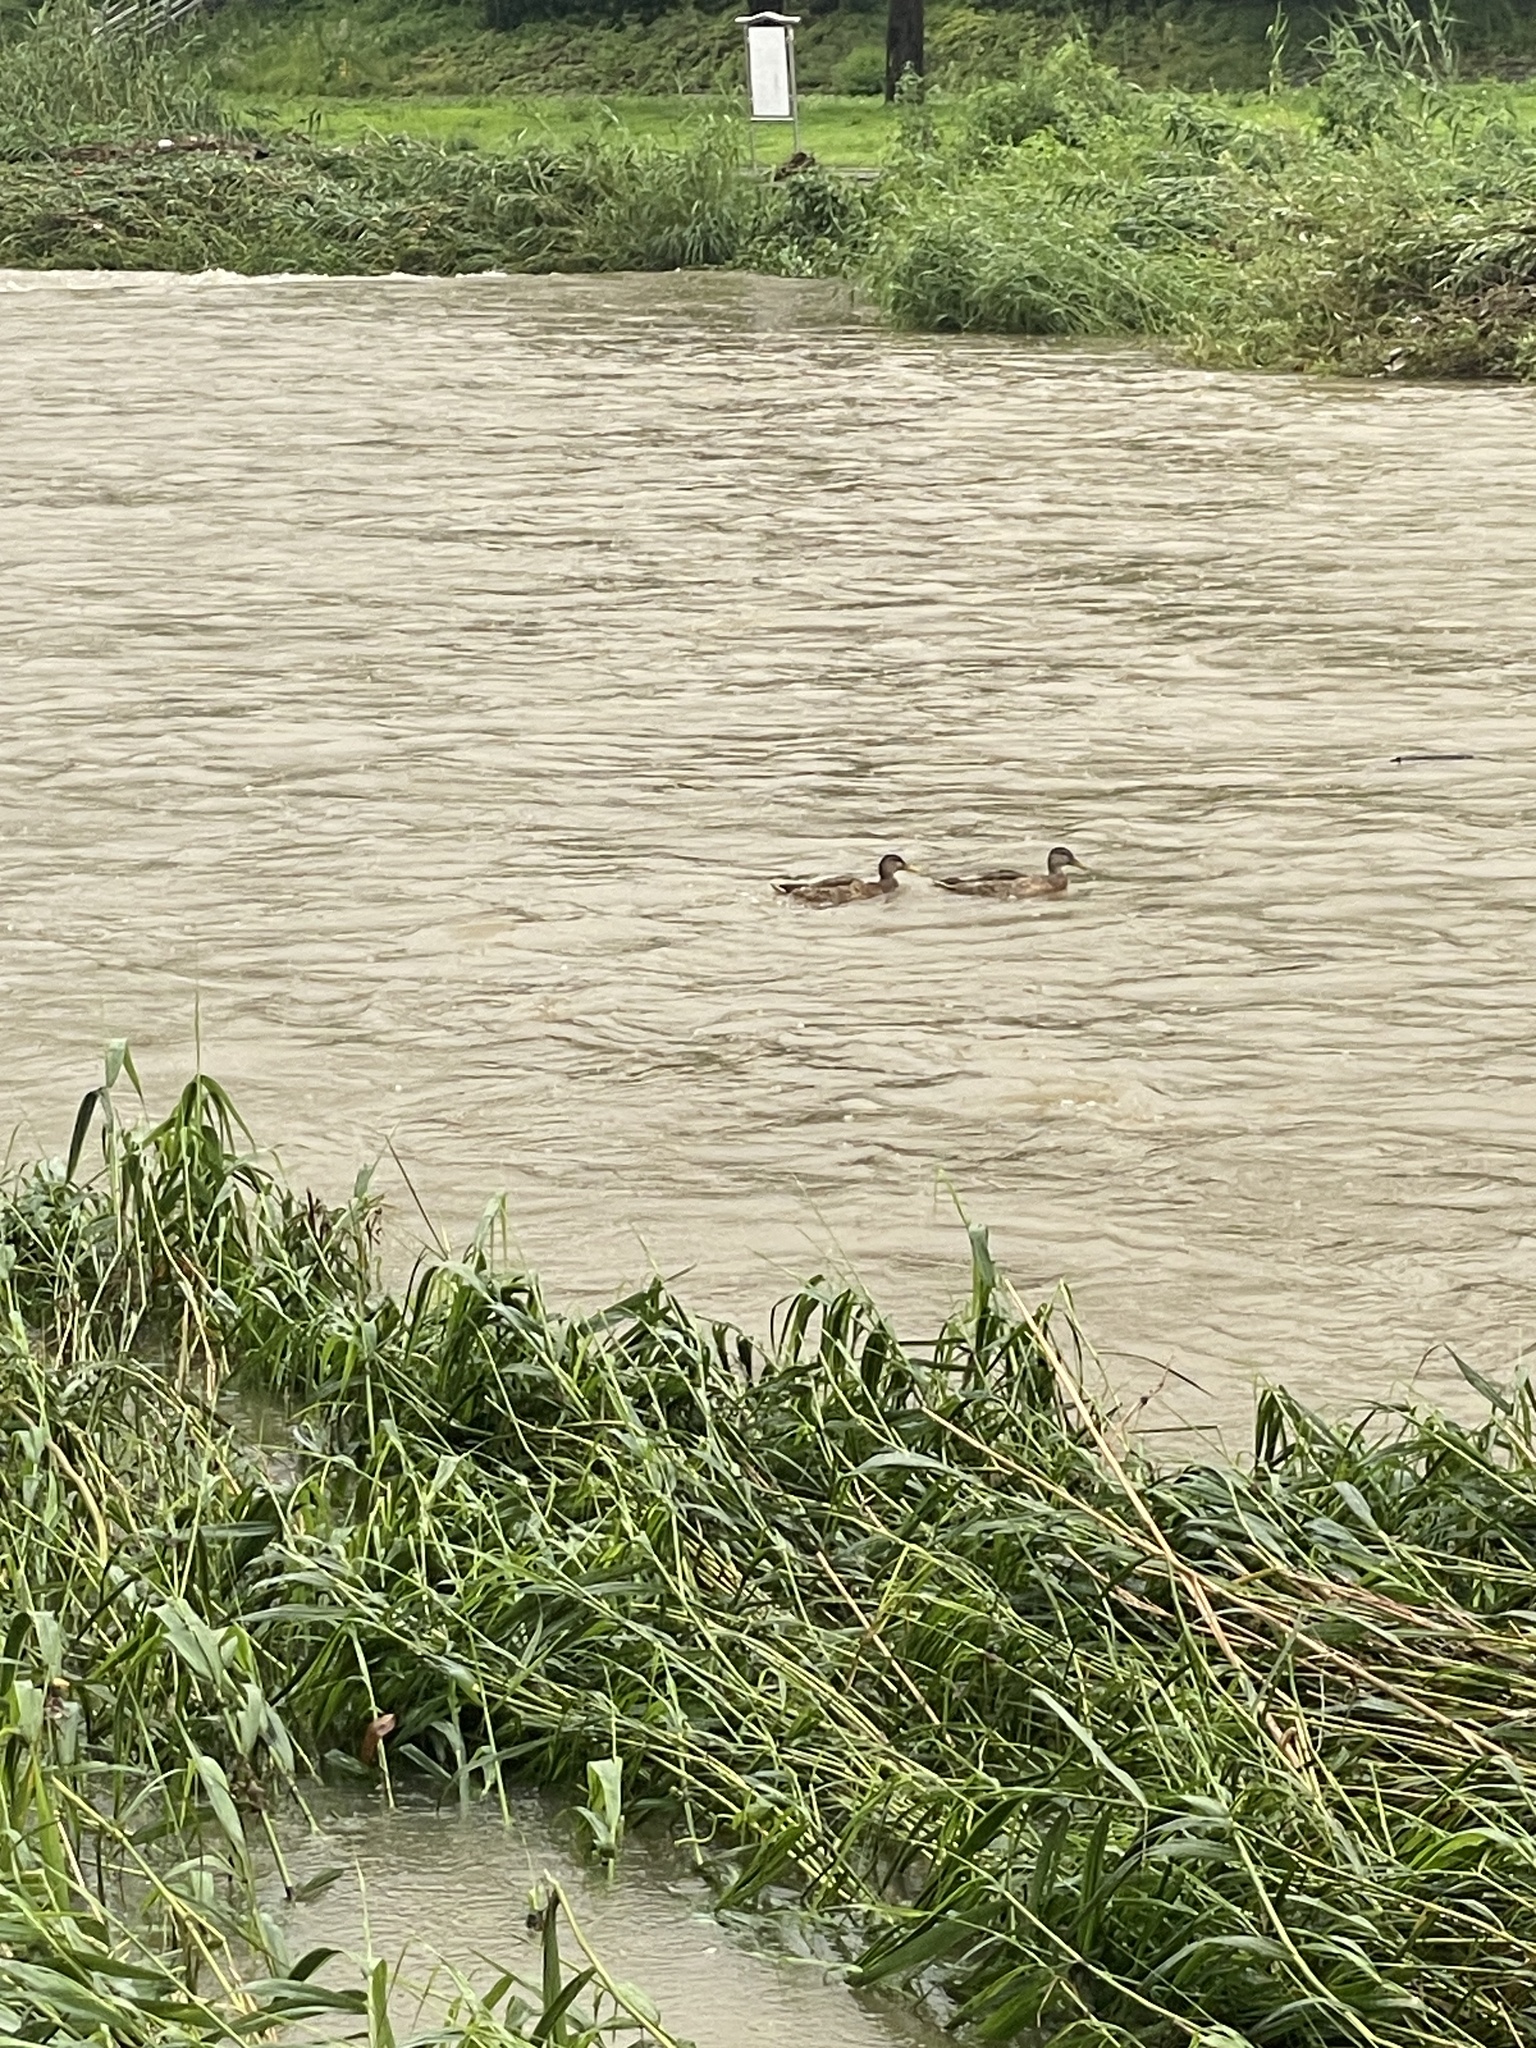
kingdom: Animalia
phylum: Chordata
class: Aves
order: Anseriformes
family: Anatidae
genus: Anas
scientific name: Anas platyrhynchos
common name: Mallard
